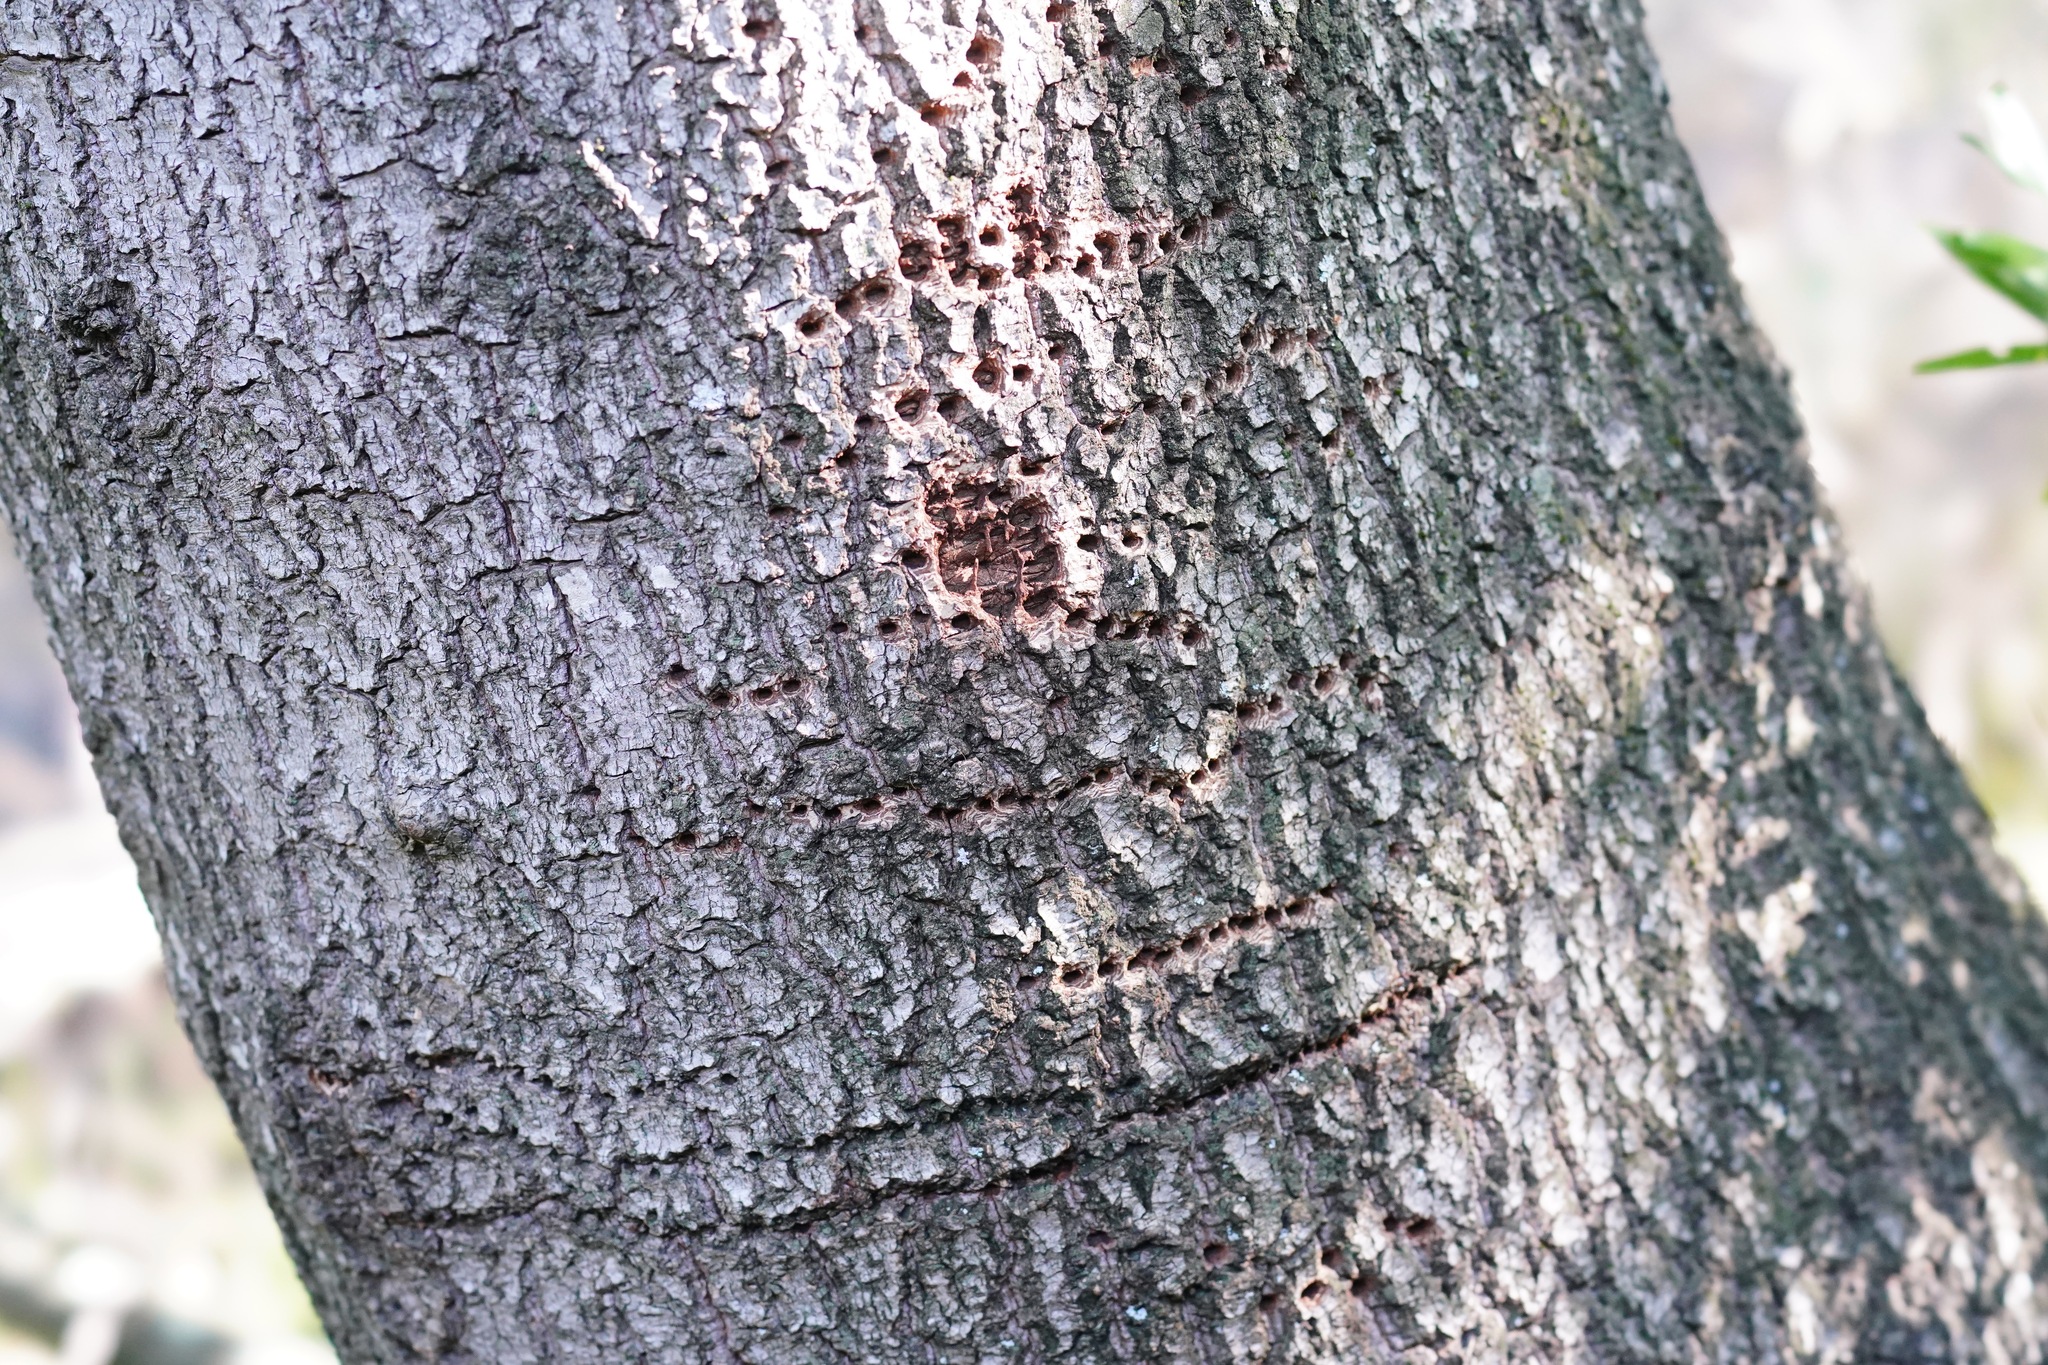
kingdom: Animalia
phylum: Chordata
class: Aves
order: Piciformes
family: Picidae
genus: Sphyrapicus
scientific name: Sphyrapicus
